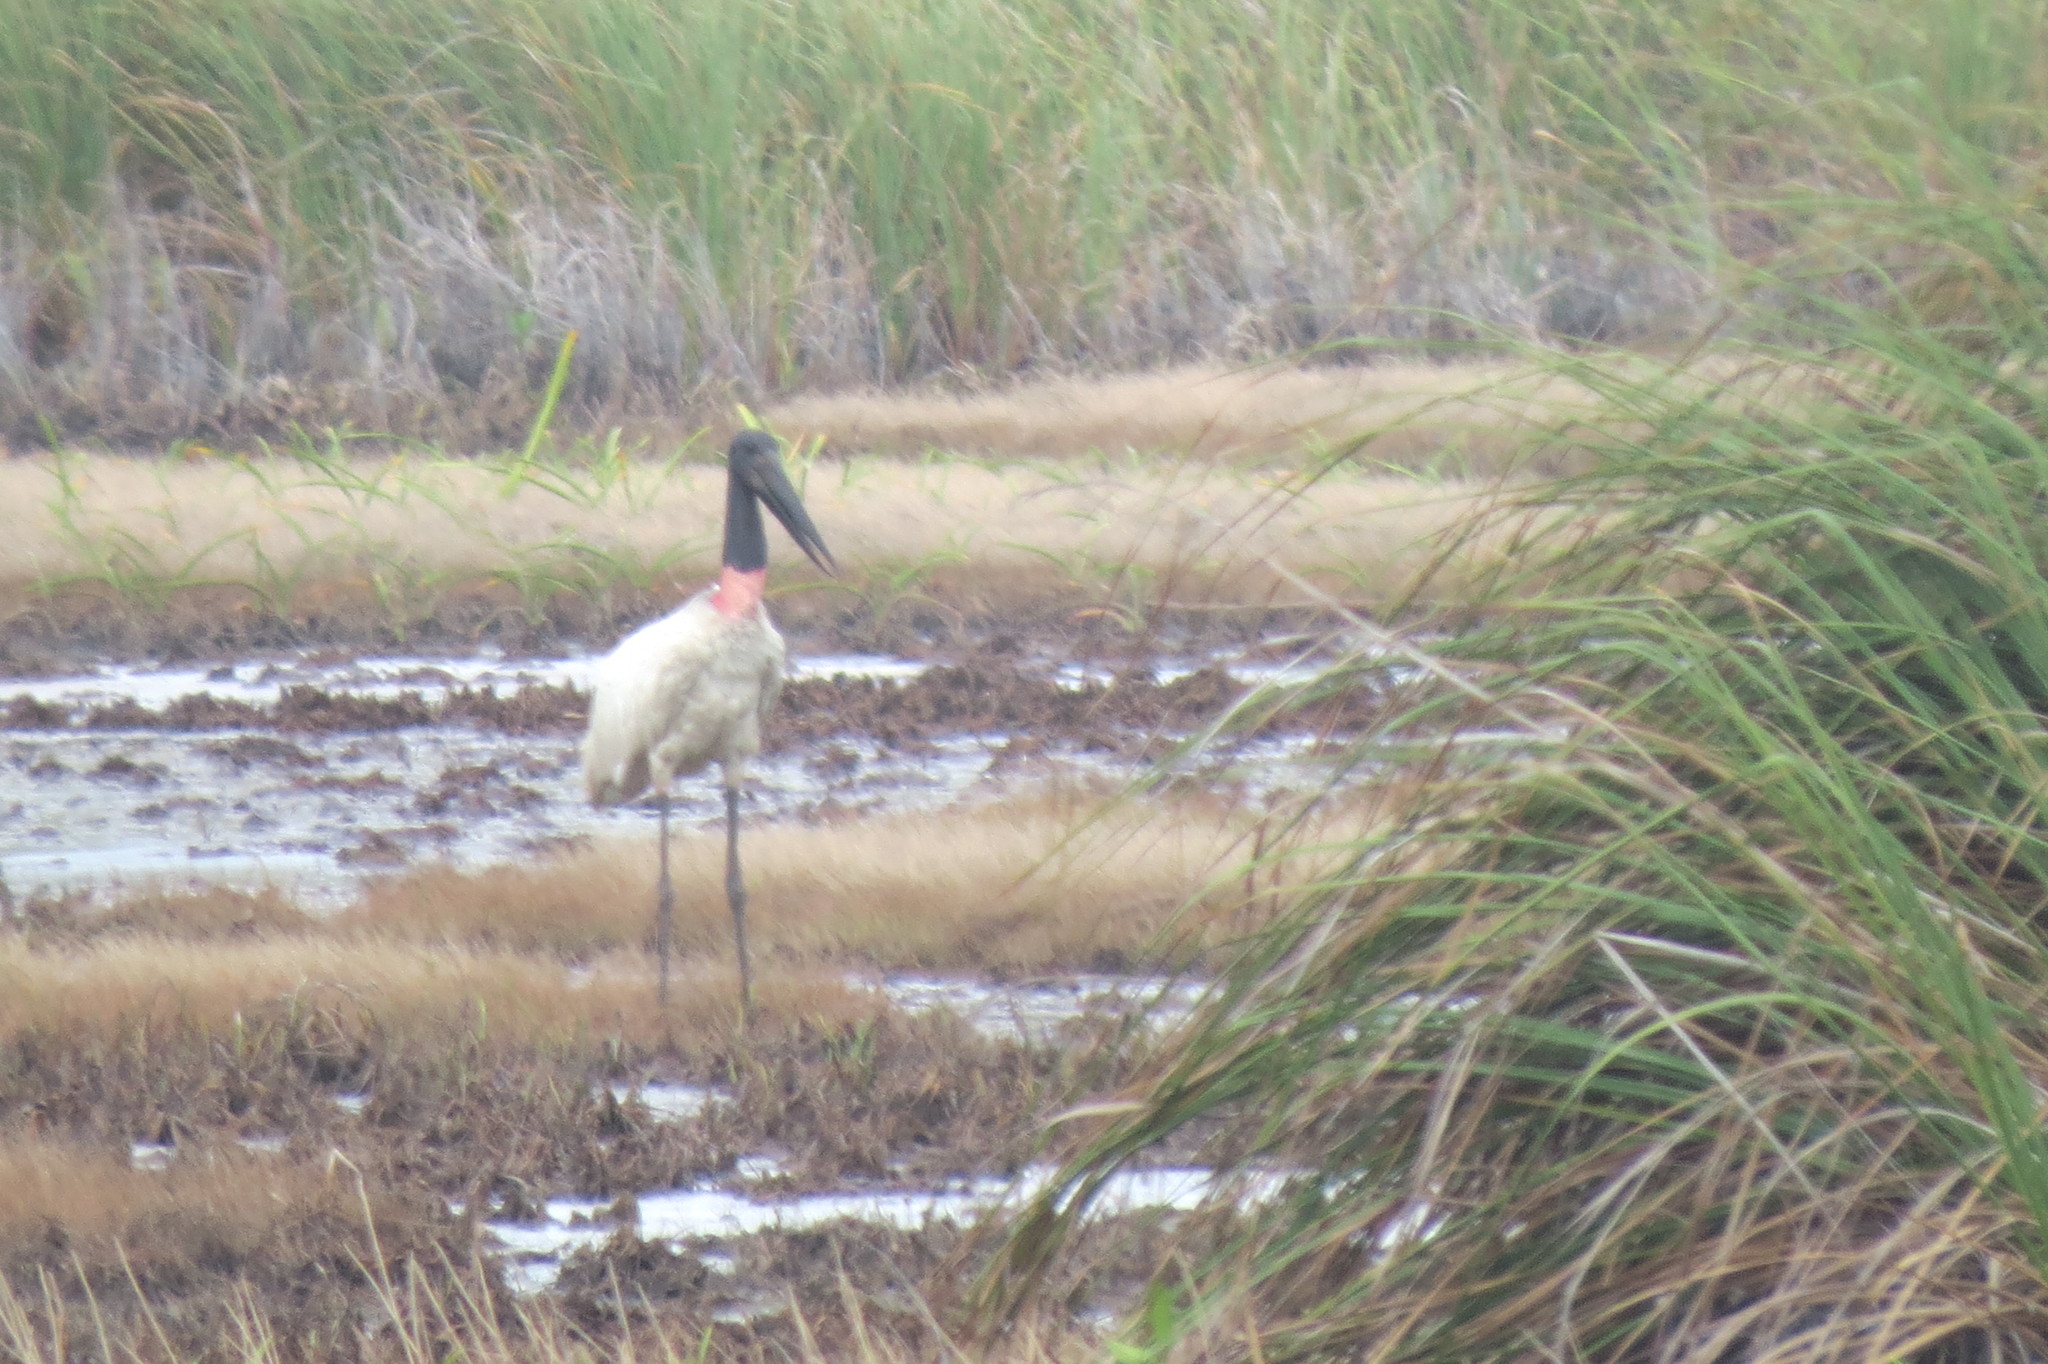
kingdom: Animalia
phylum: Chordata
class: Aves
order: Ciconiiformes
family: Ciconiidae
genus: Jabiru
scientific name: Jabiru mycteria
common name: Jabiru
